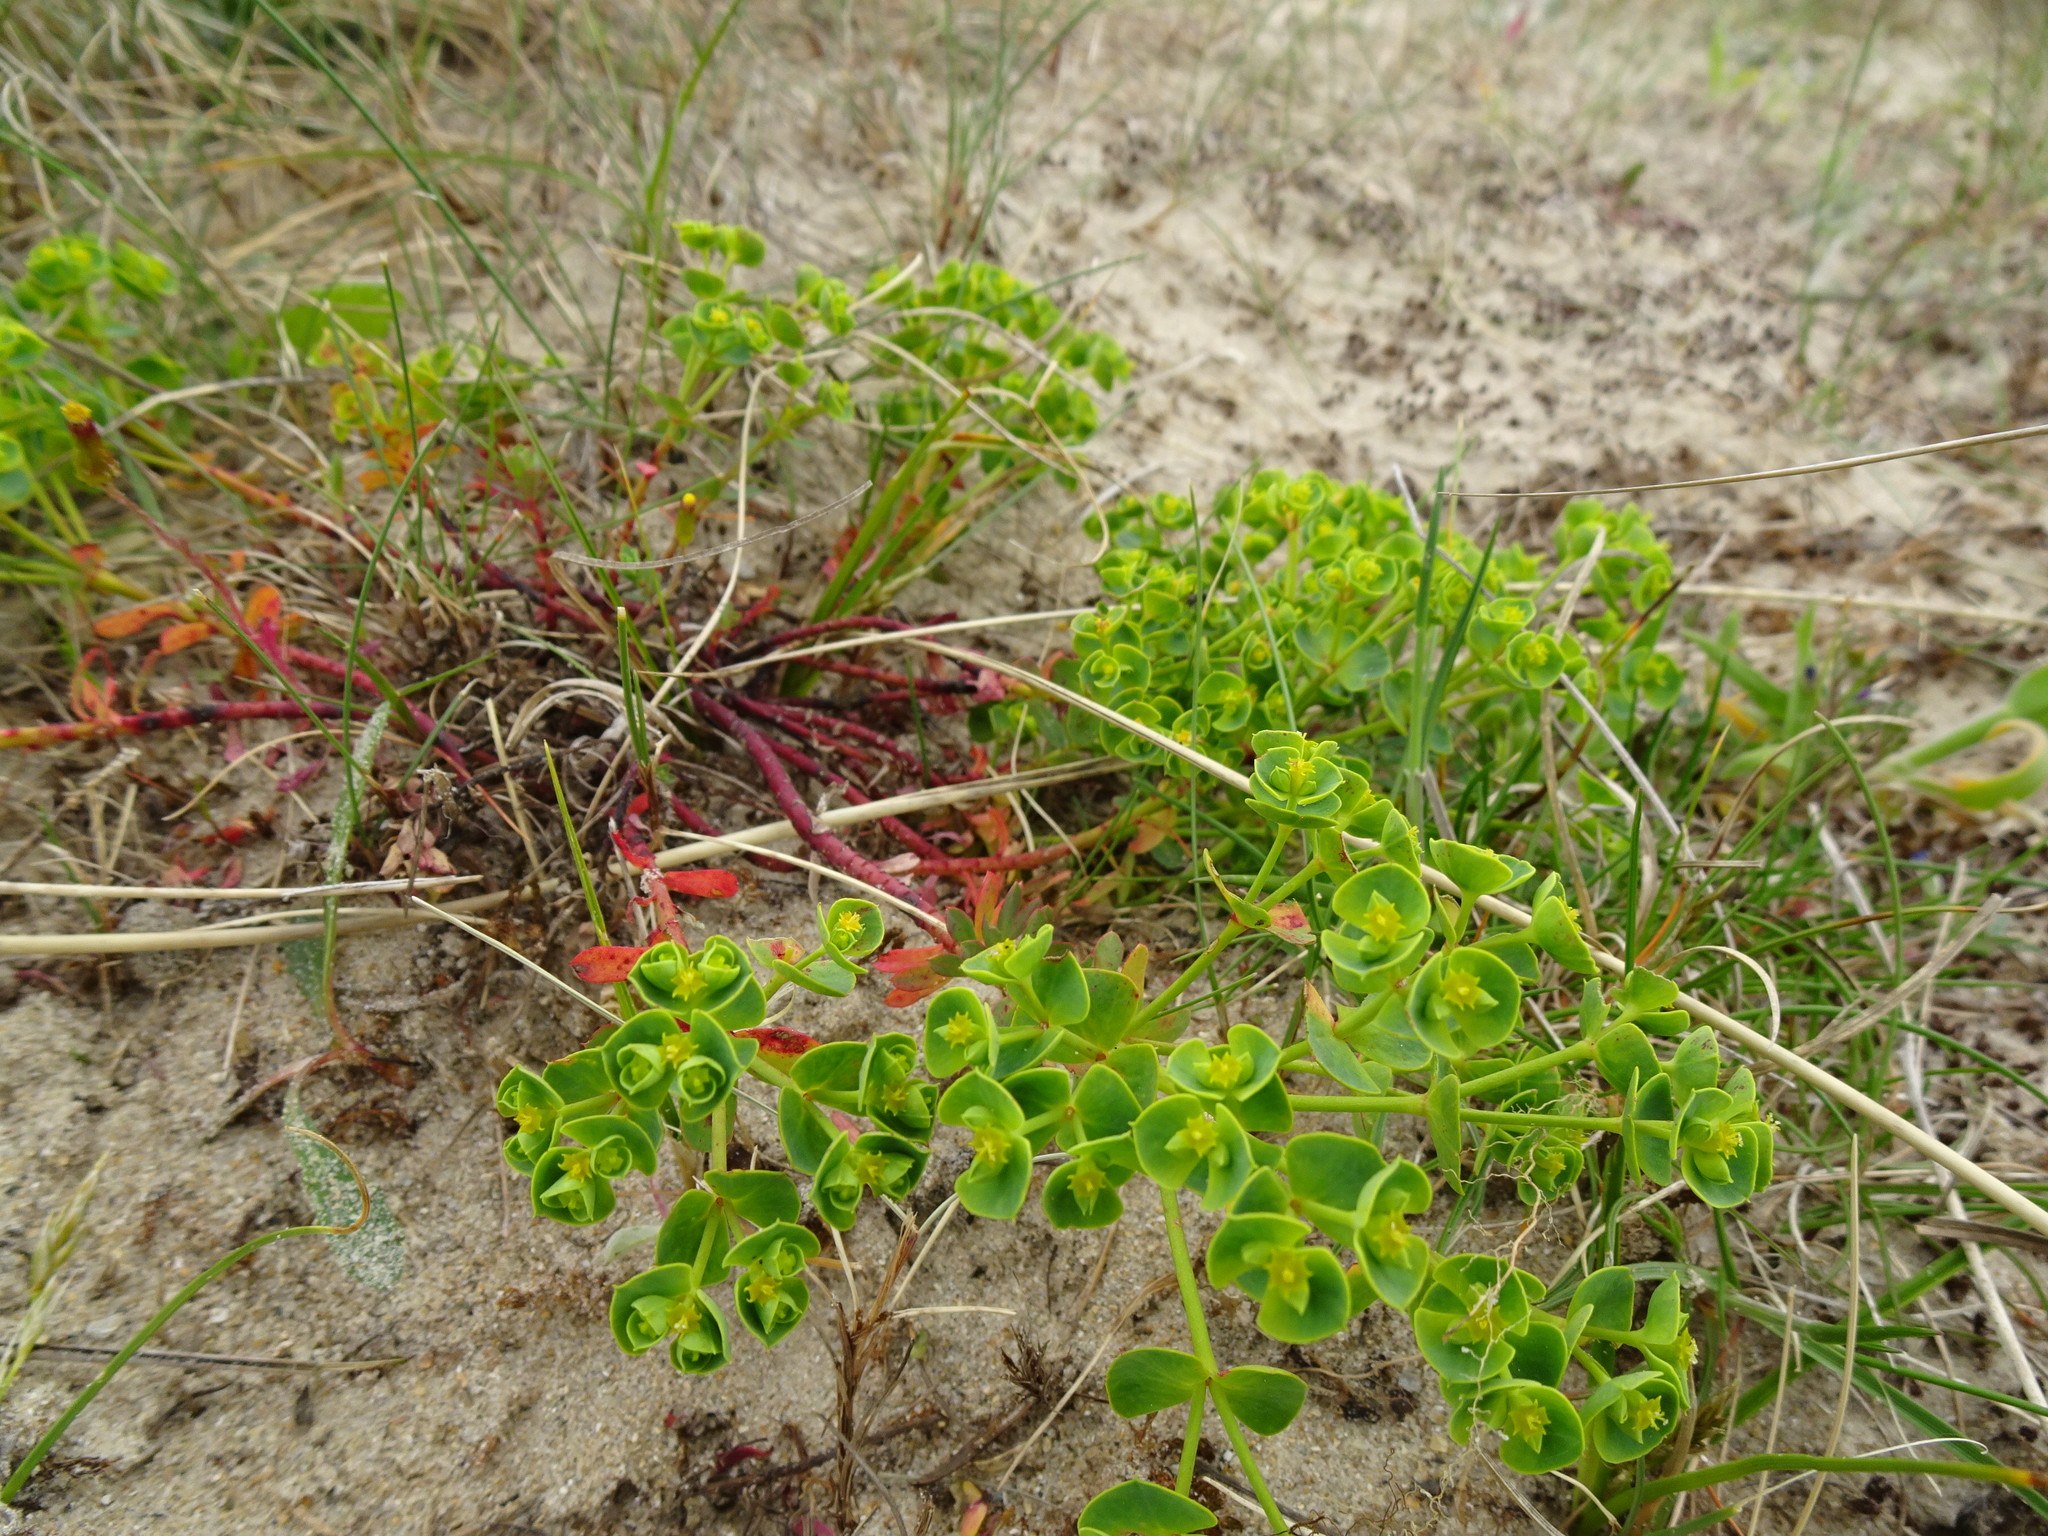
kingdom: Plantae
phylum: Tracheophyta
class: Magnoliopsida
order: Malpighiales
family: Euphorbiaceae
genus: Euphorbia
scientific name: Euphorbia portlandica
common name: Portland spurge
